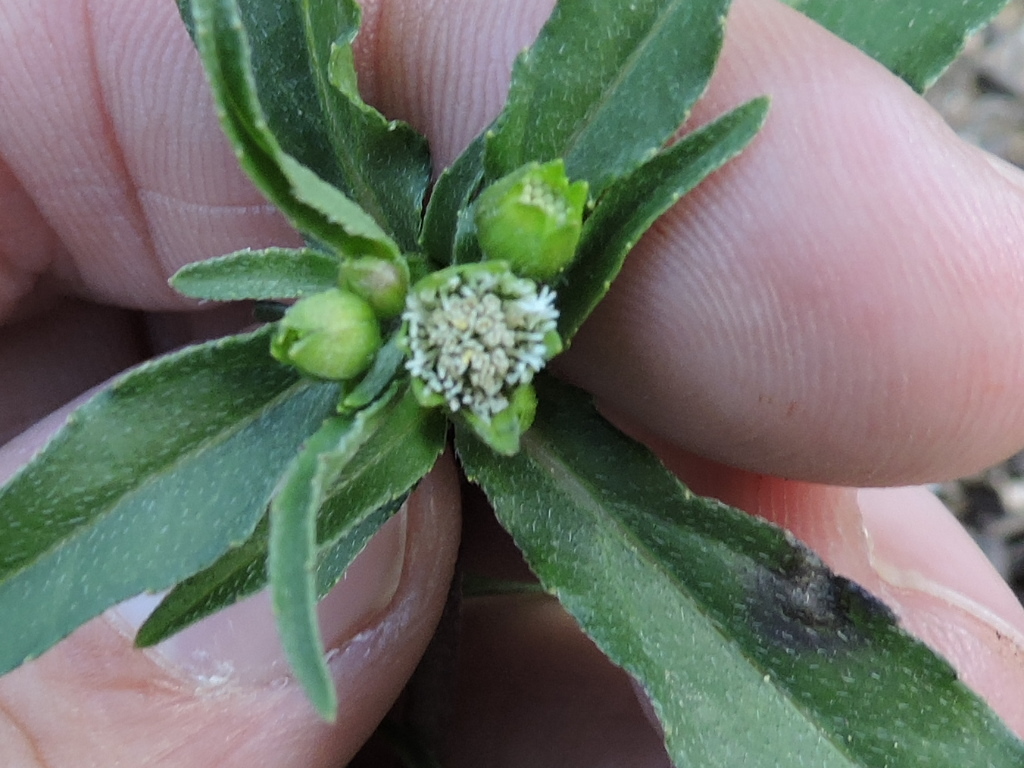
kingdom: Plantae
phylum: Tracheophyta
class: Magnoliopsida
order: Asterales
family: Asteraceae
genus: Eclipta
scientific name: Eclipta prostrata
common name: False daisy
